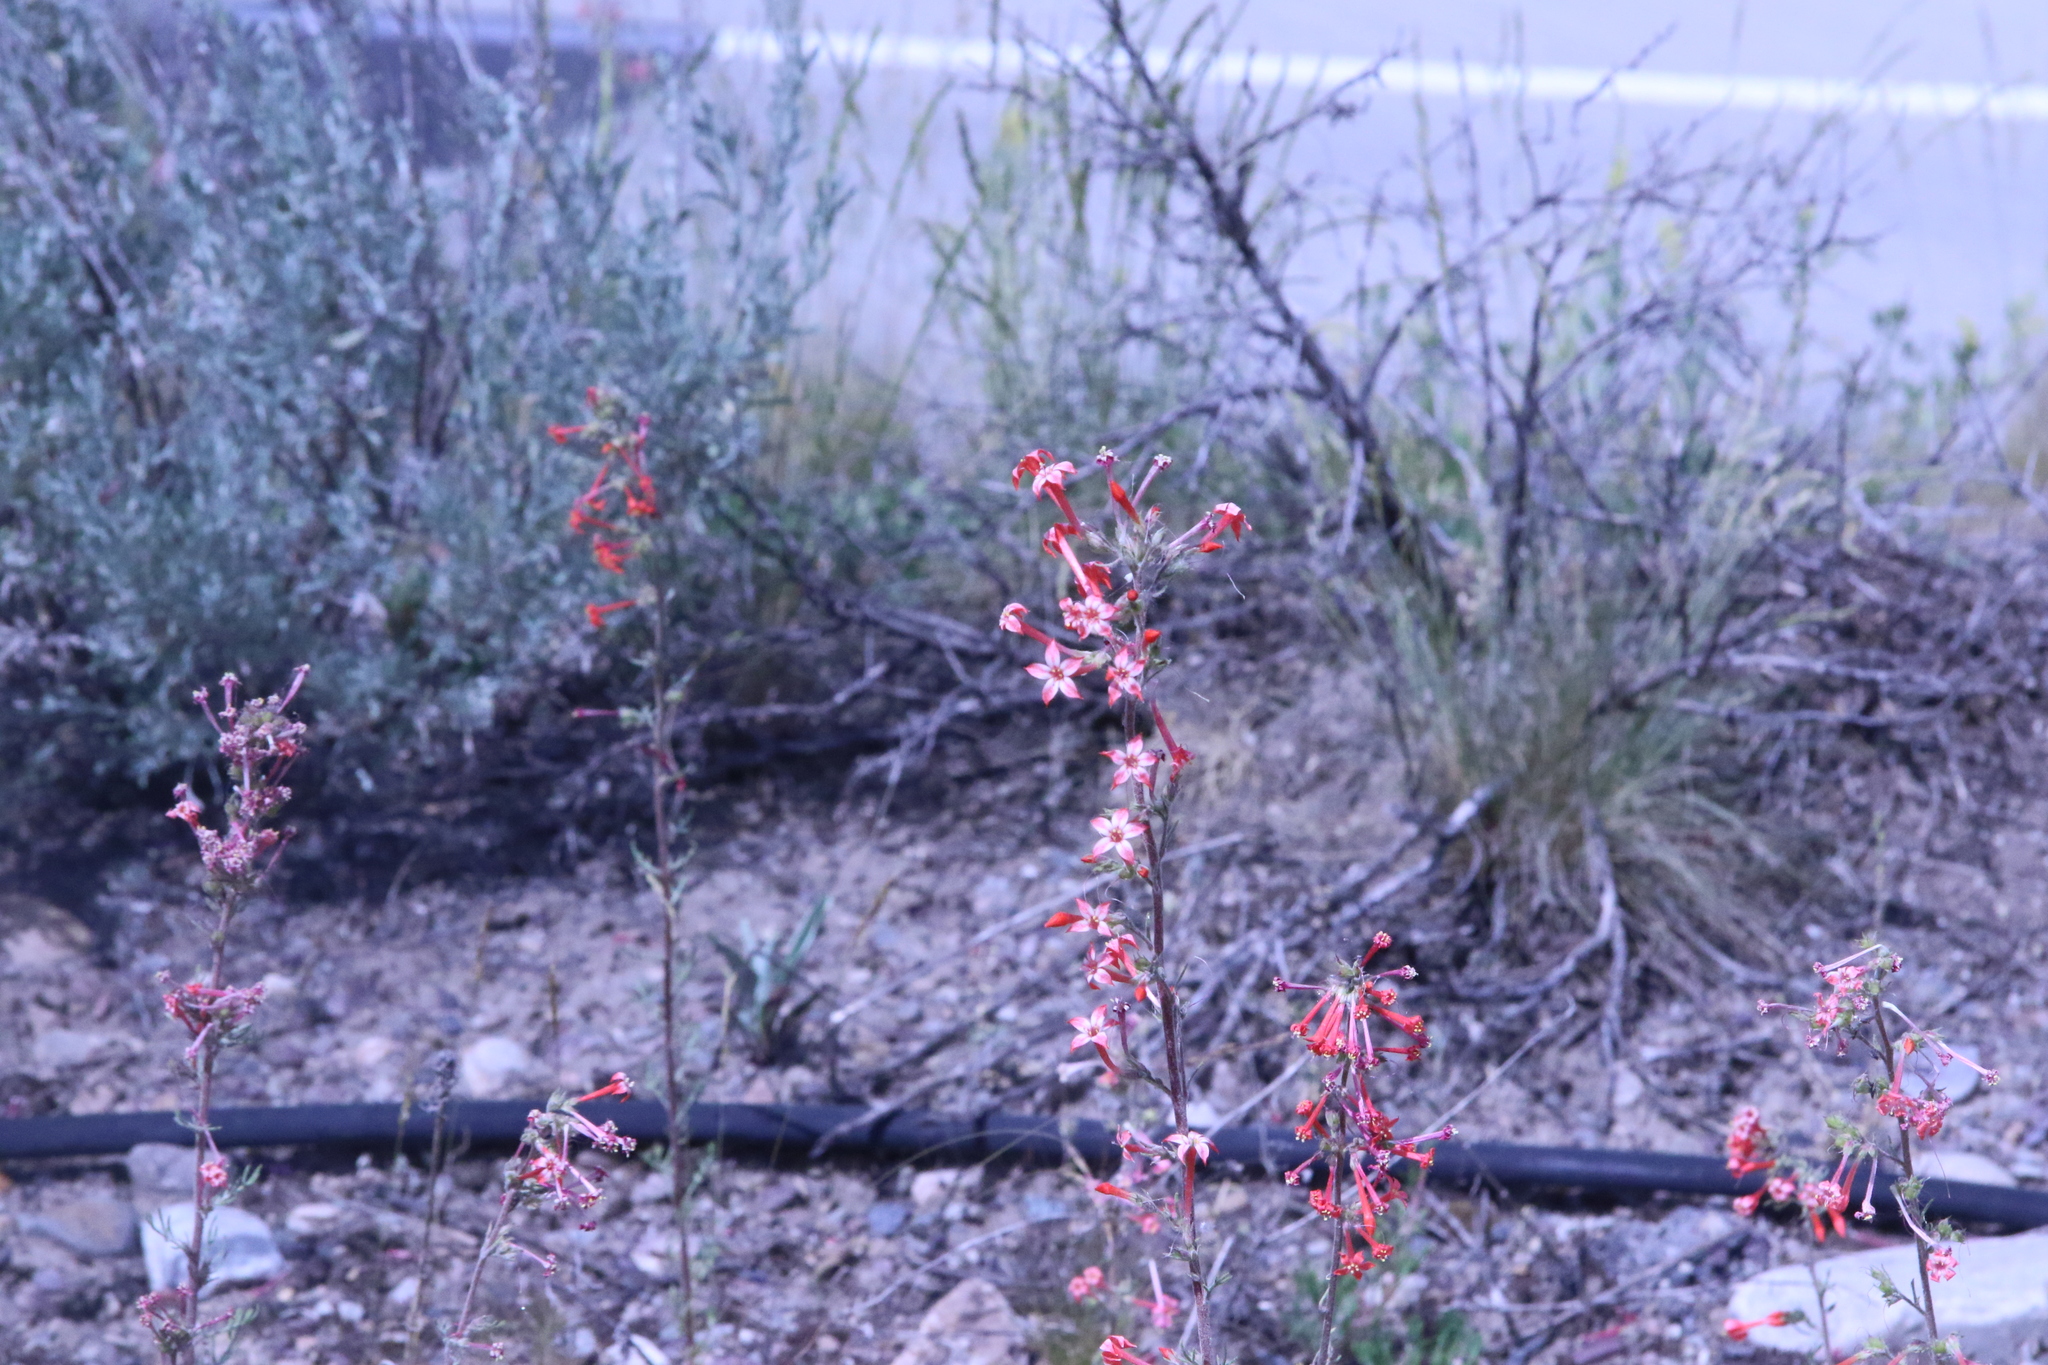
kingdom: Plantae
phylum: Tracheophyta
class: Magnoliopsida
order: Ericales
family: Polemoniaceae
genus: Ipomopsis
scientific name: Ipomopsis aggregata
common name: Scarlet gilia
